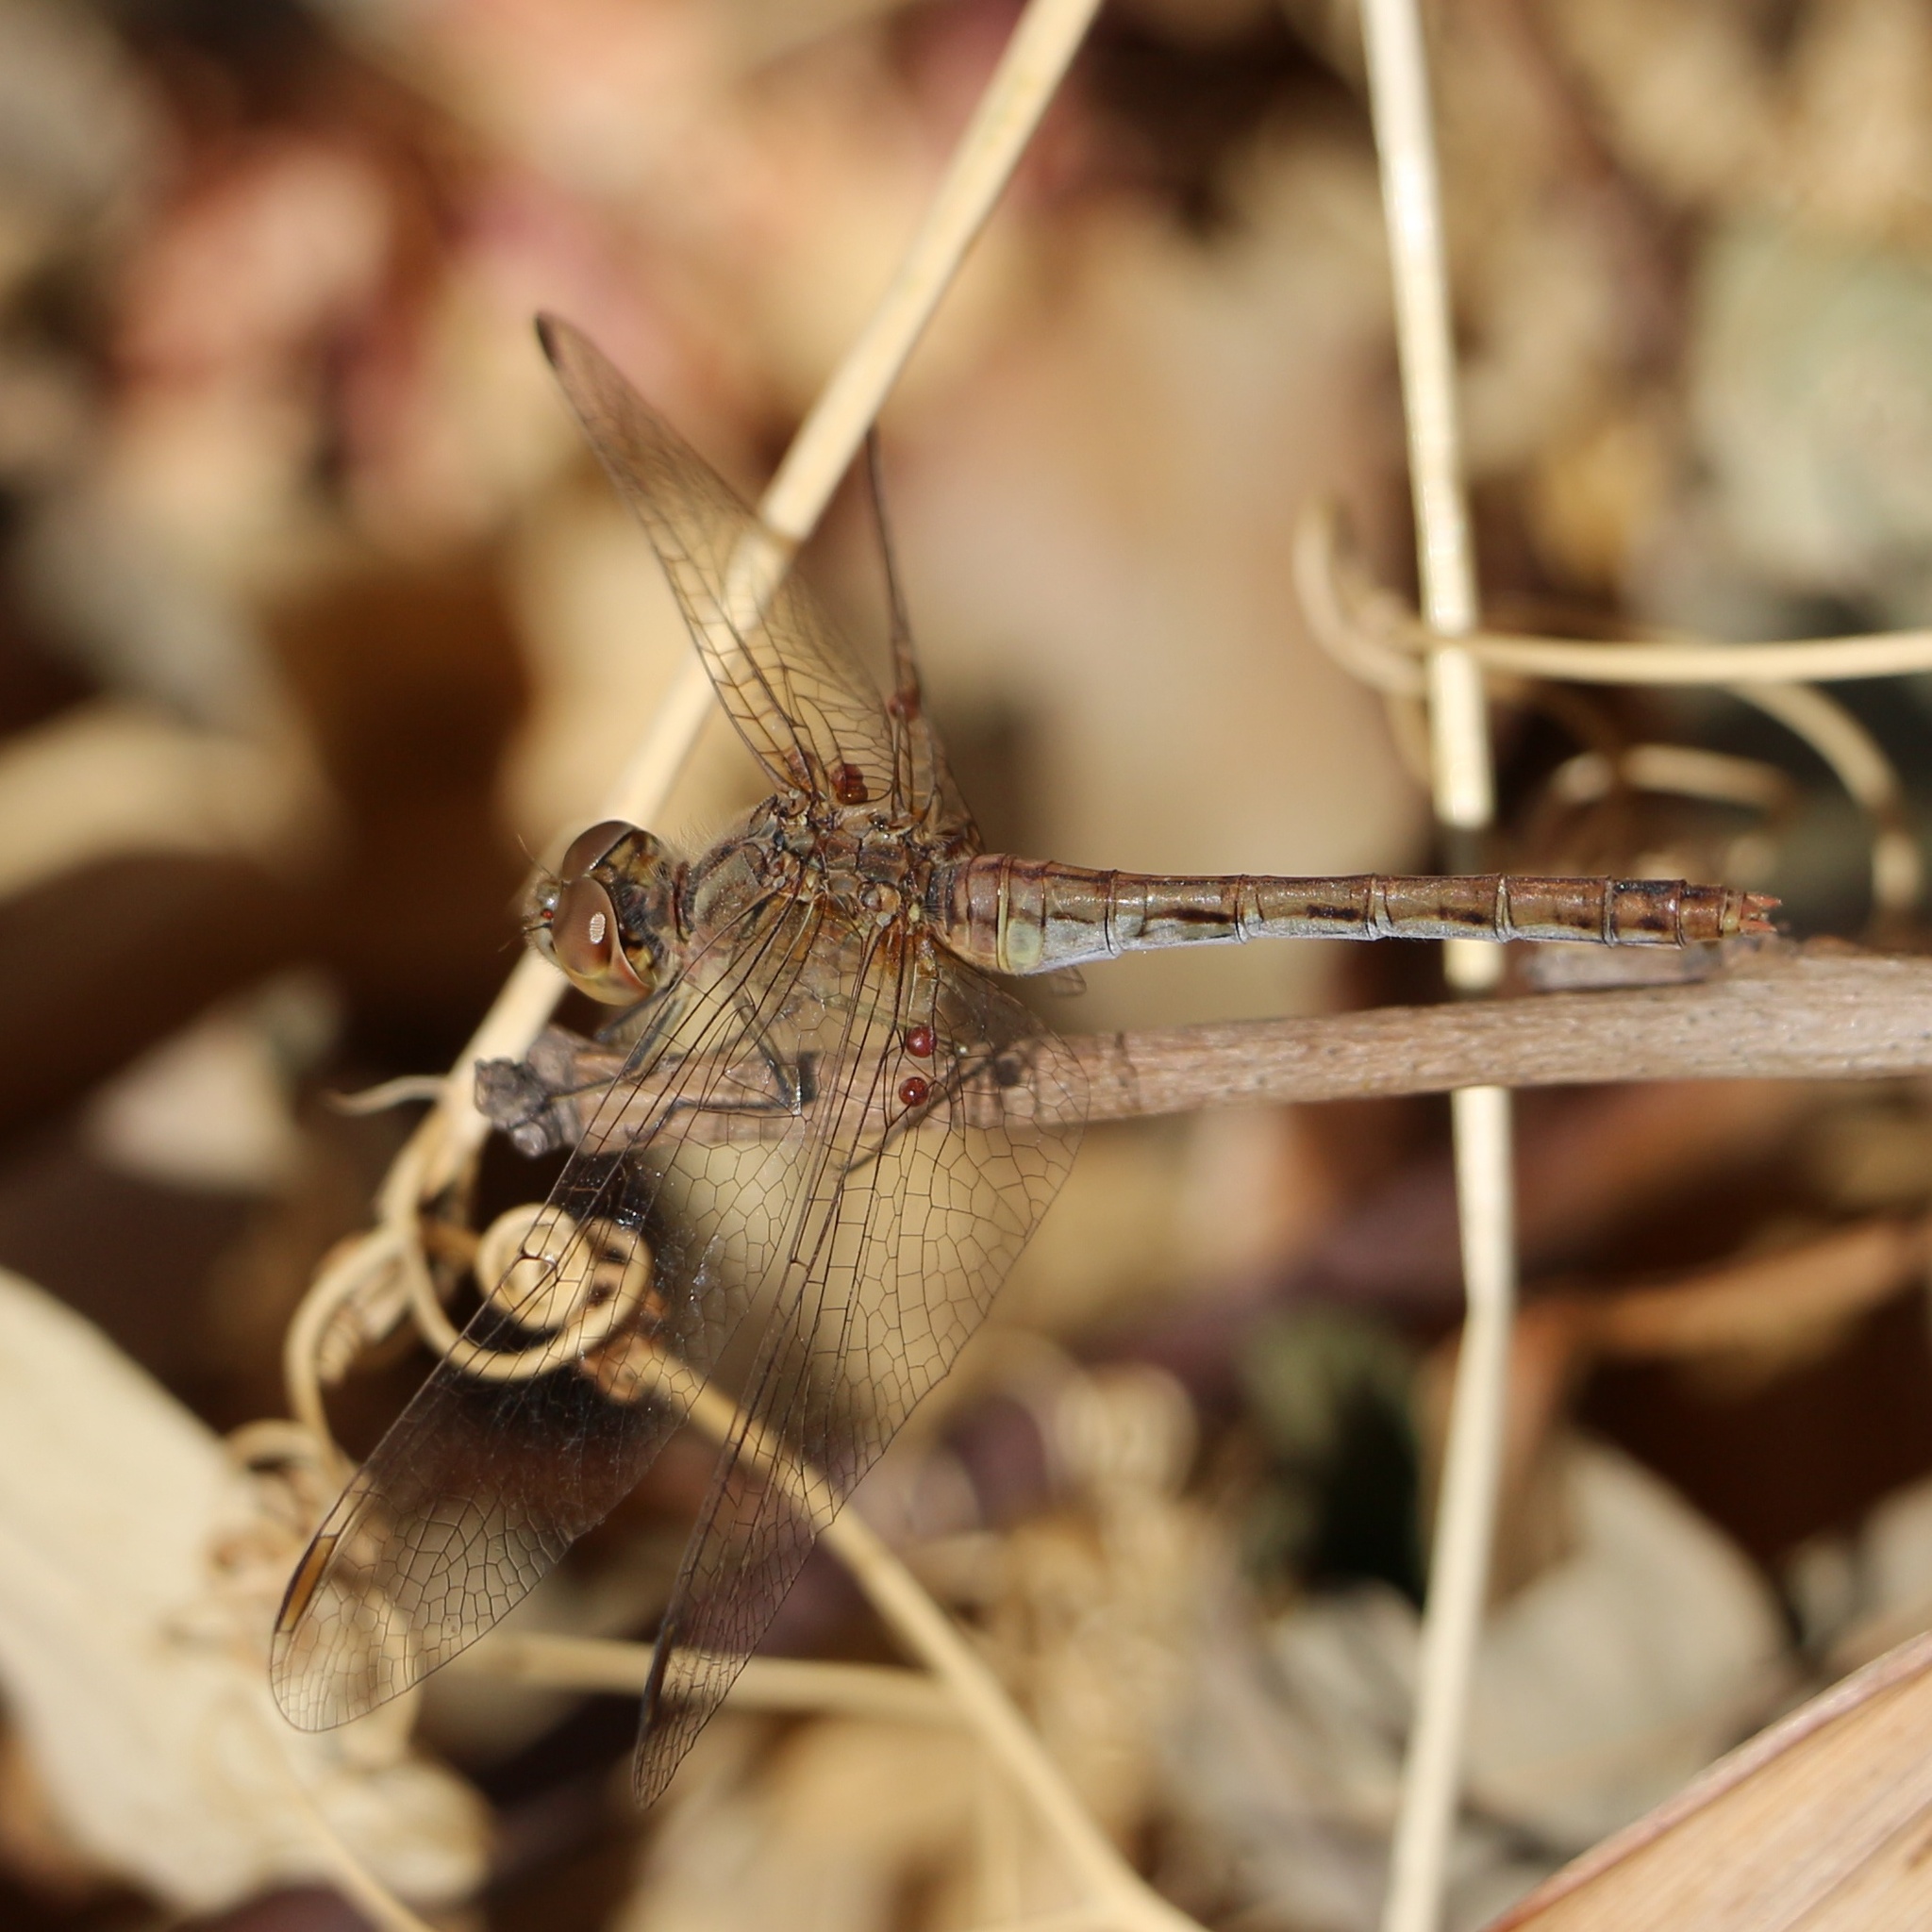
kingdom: Animalia
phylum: Arthropoda
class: Insecta
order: Odonata
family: Libellulidae
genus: Sympetrum
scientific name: Sympetrum meridionale
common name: Southern darter
